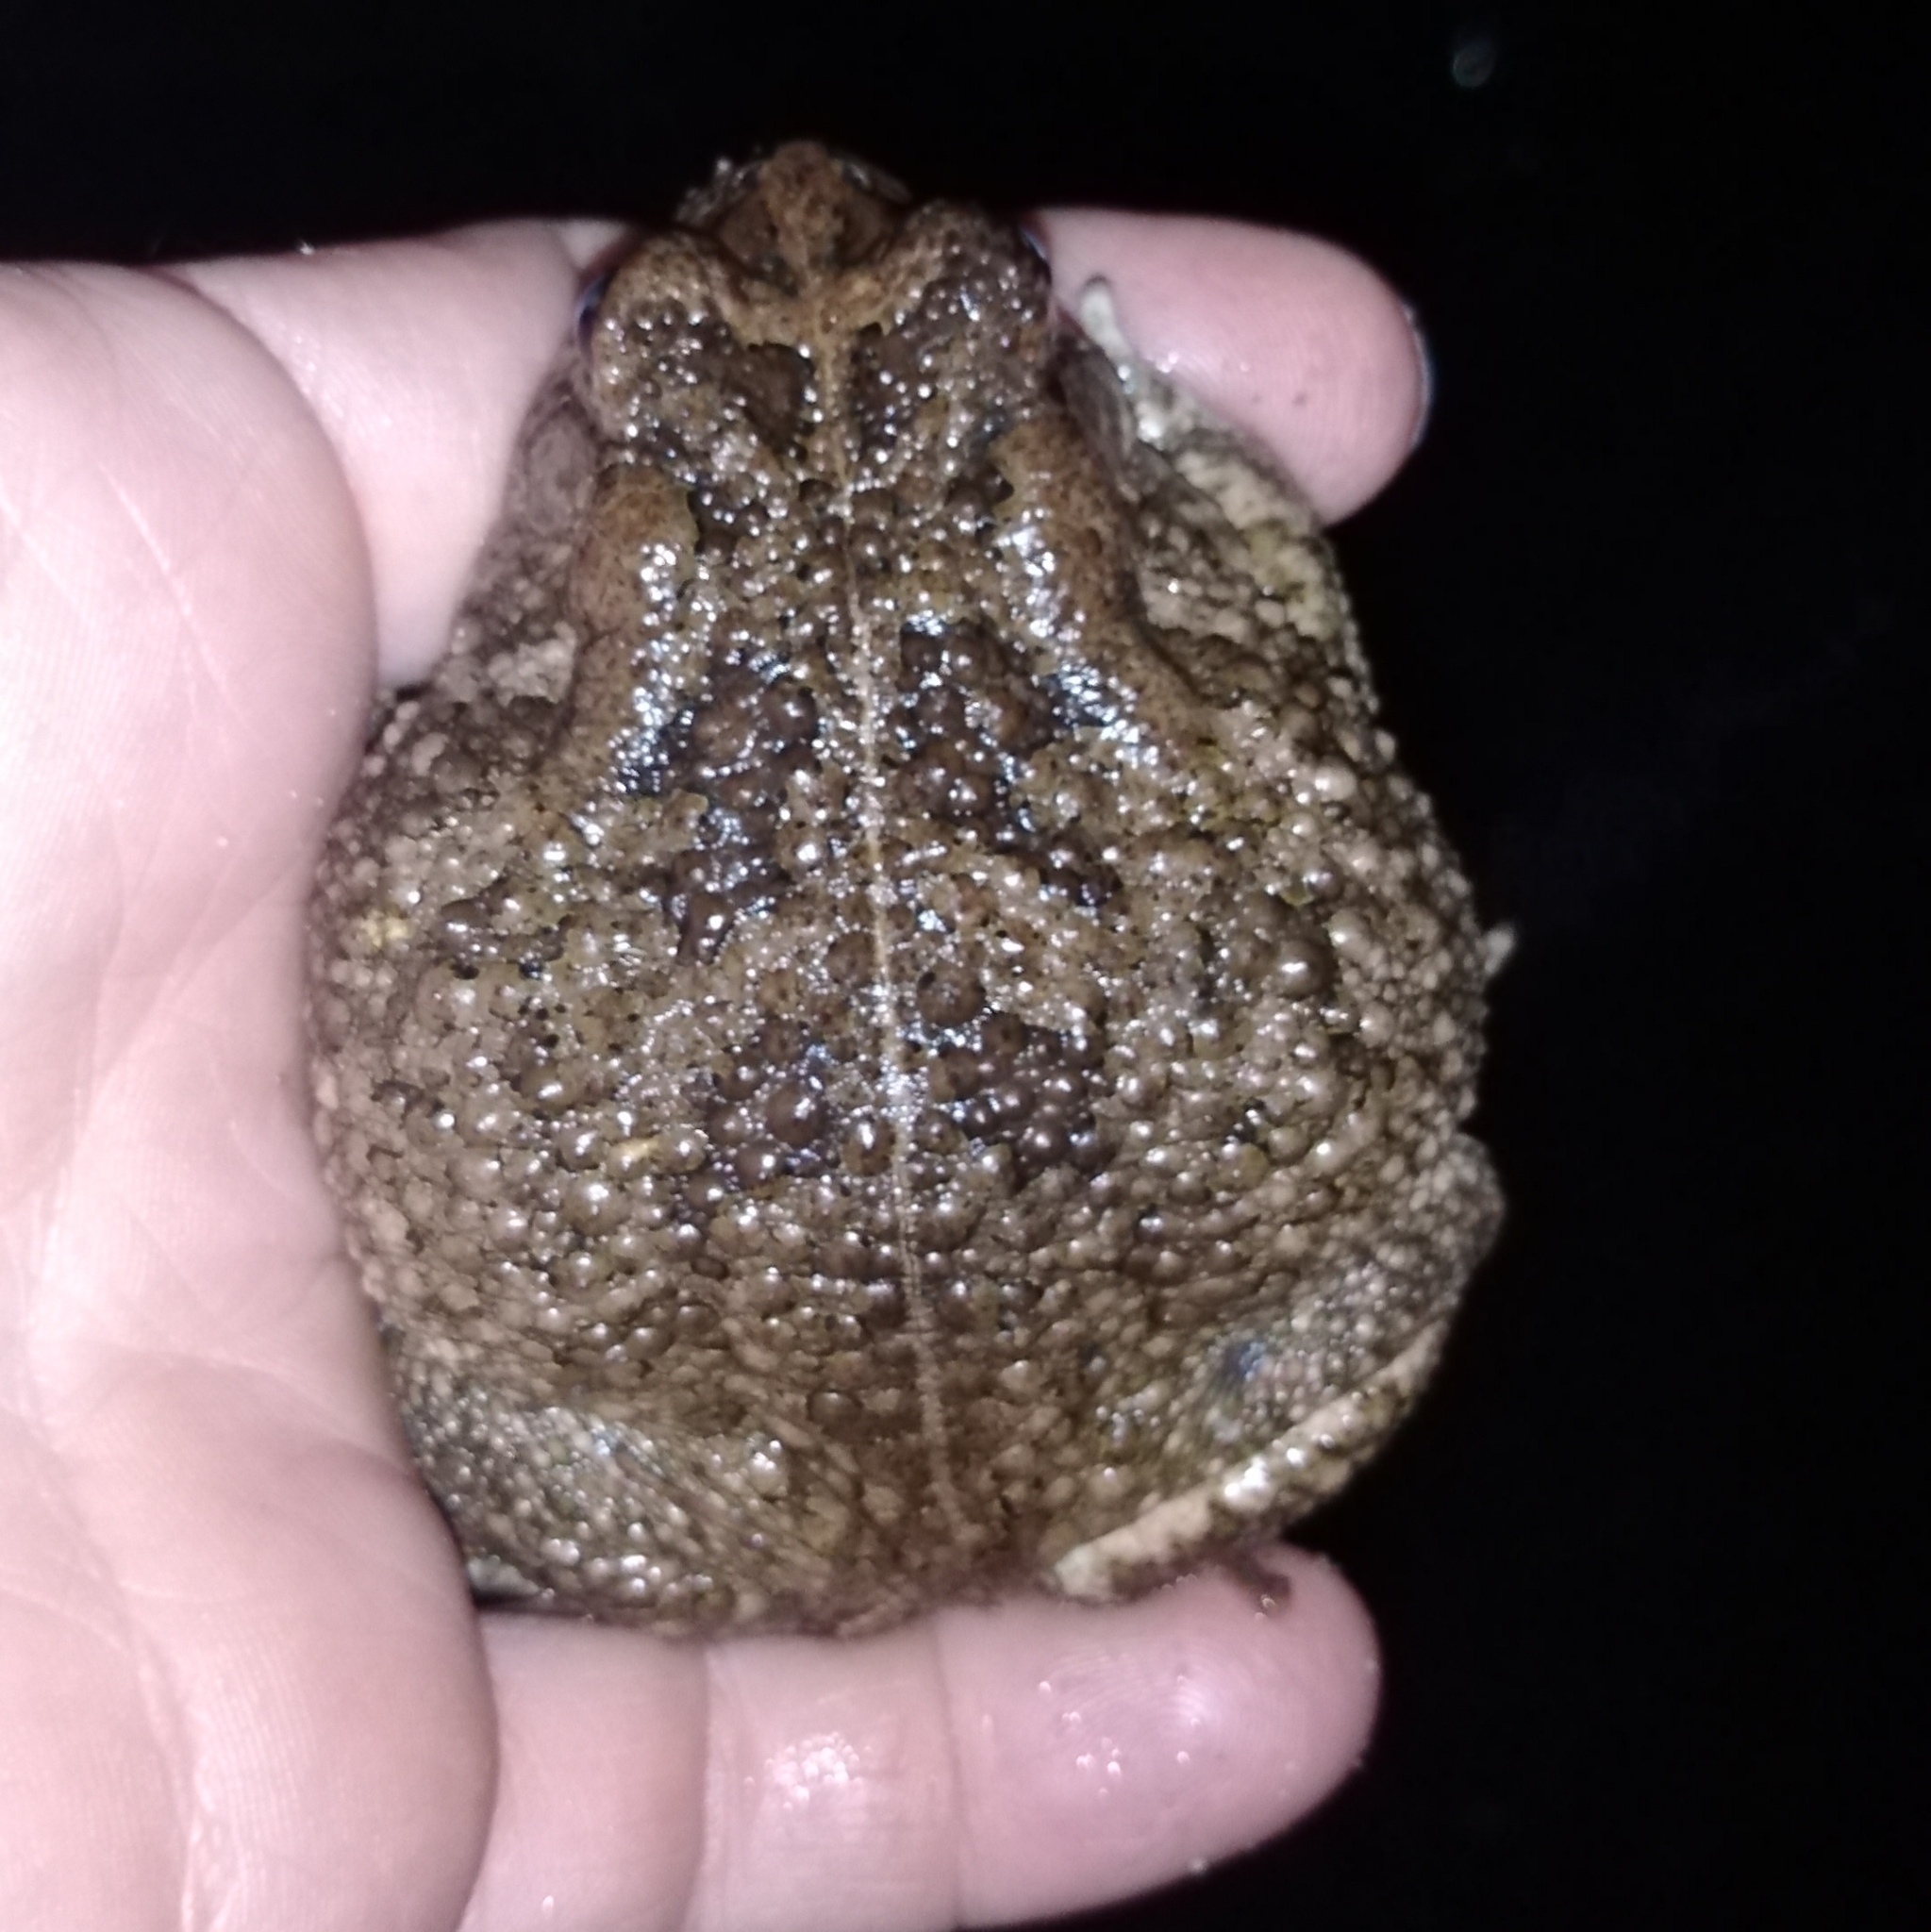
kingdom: Animalia
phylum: Chordata
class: Amphibia
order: Anura
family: Bufonidae
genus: Sclerophrys
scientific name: Sclerophrys gutturalis
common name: African common toad
